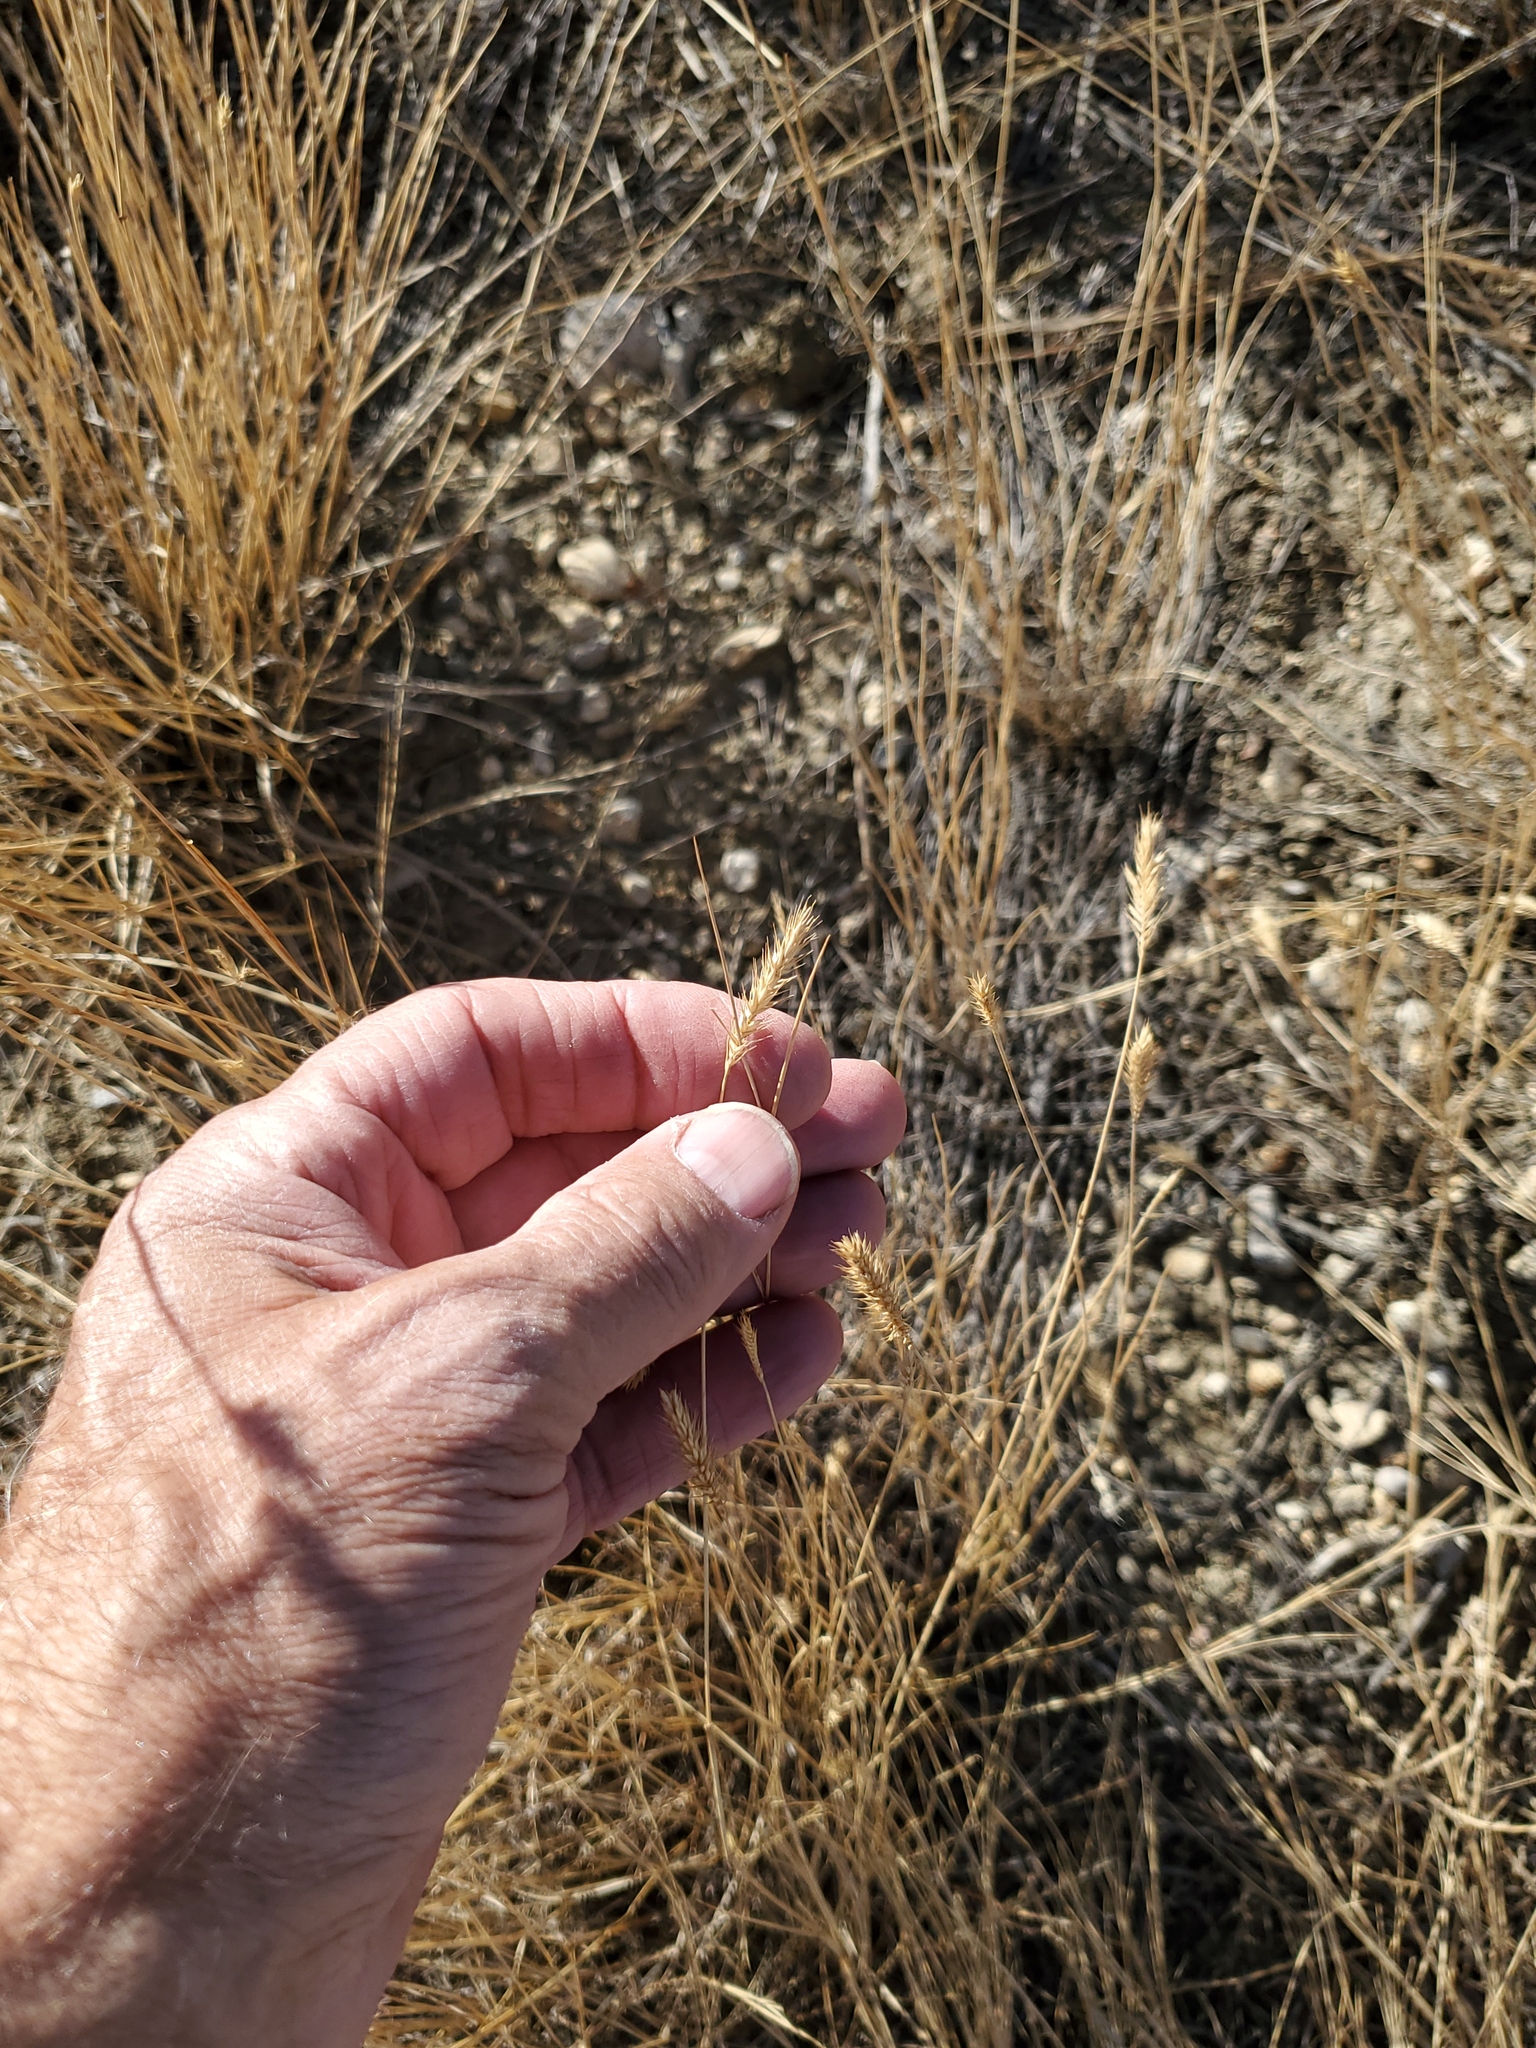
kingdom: Plantae
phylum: Tracheophyta
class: Liliopsida
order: Poales
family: Poaceae
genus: Agropyron
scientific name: Agropyron cristatum
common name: Crested wheatgrass
